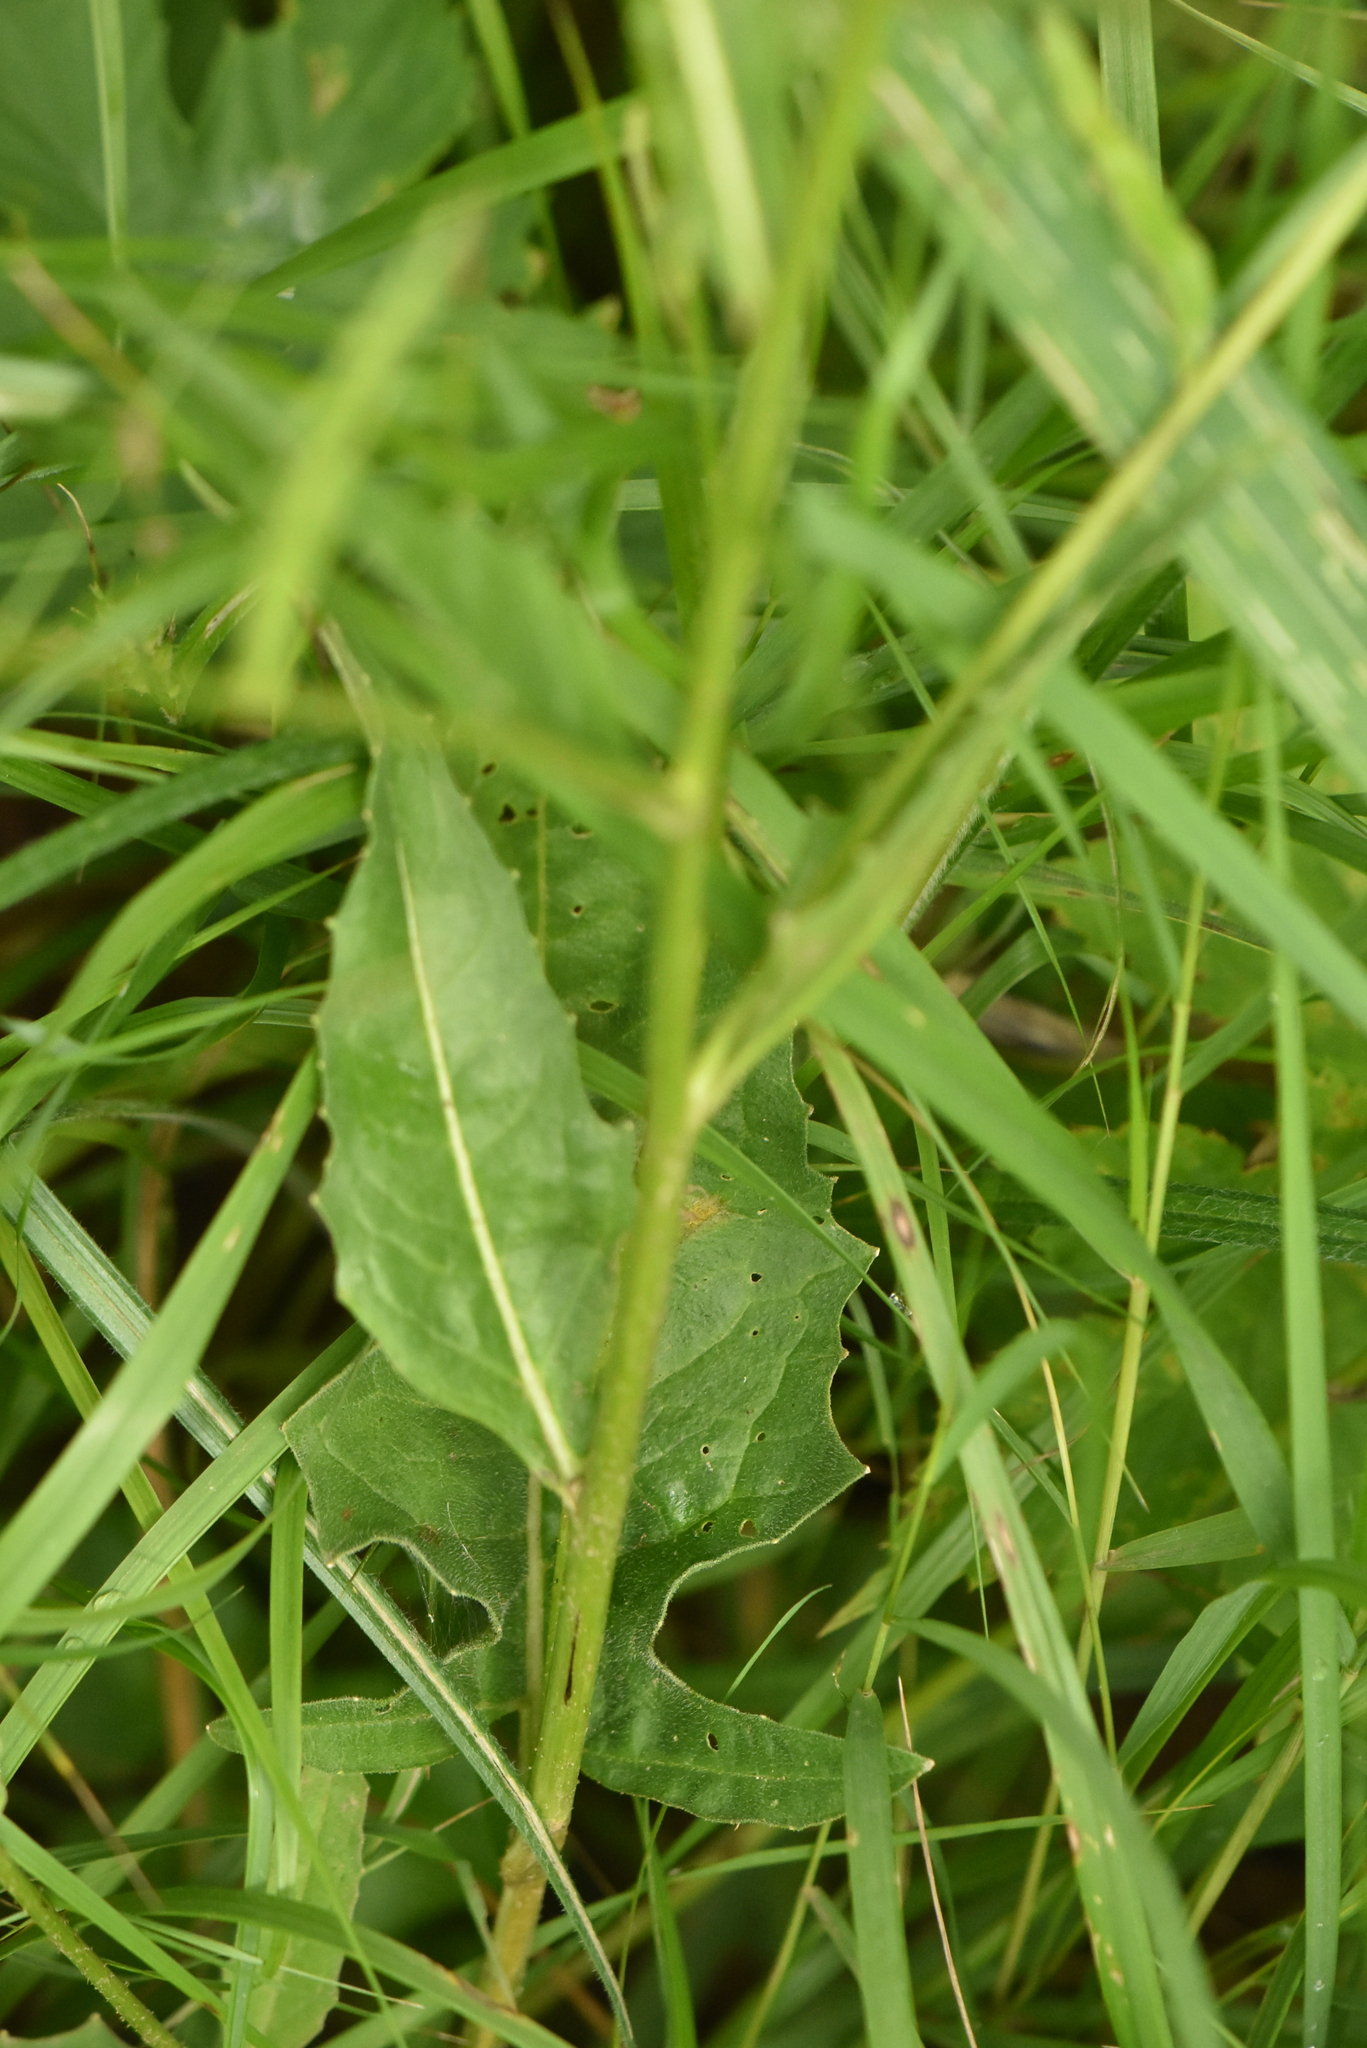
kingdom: Plantae
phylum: Tracheophyta
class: Magnoliopsida
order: Brassicales
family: Brassicaceae
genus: Bunias
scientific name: Bunias orientalis
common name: Warty-cabbage
